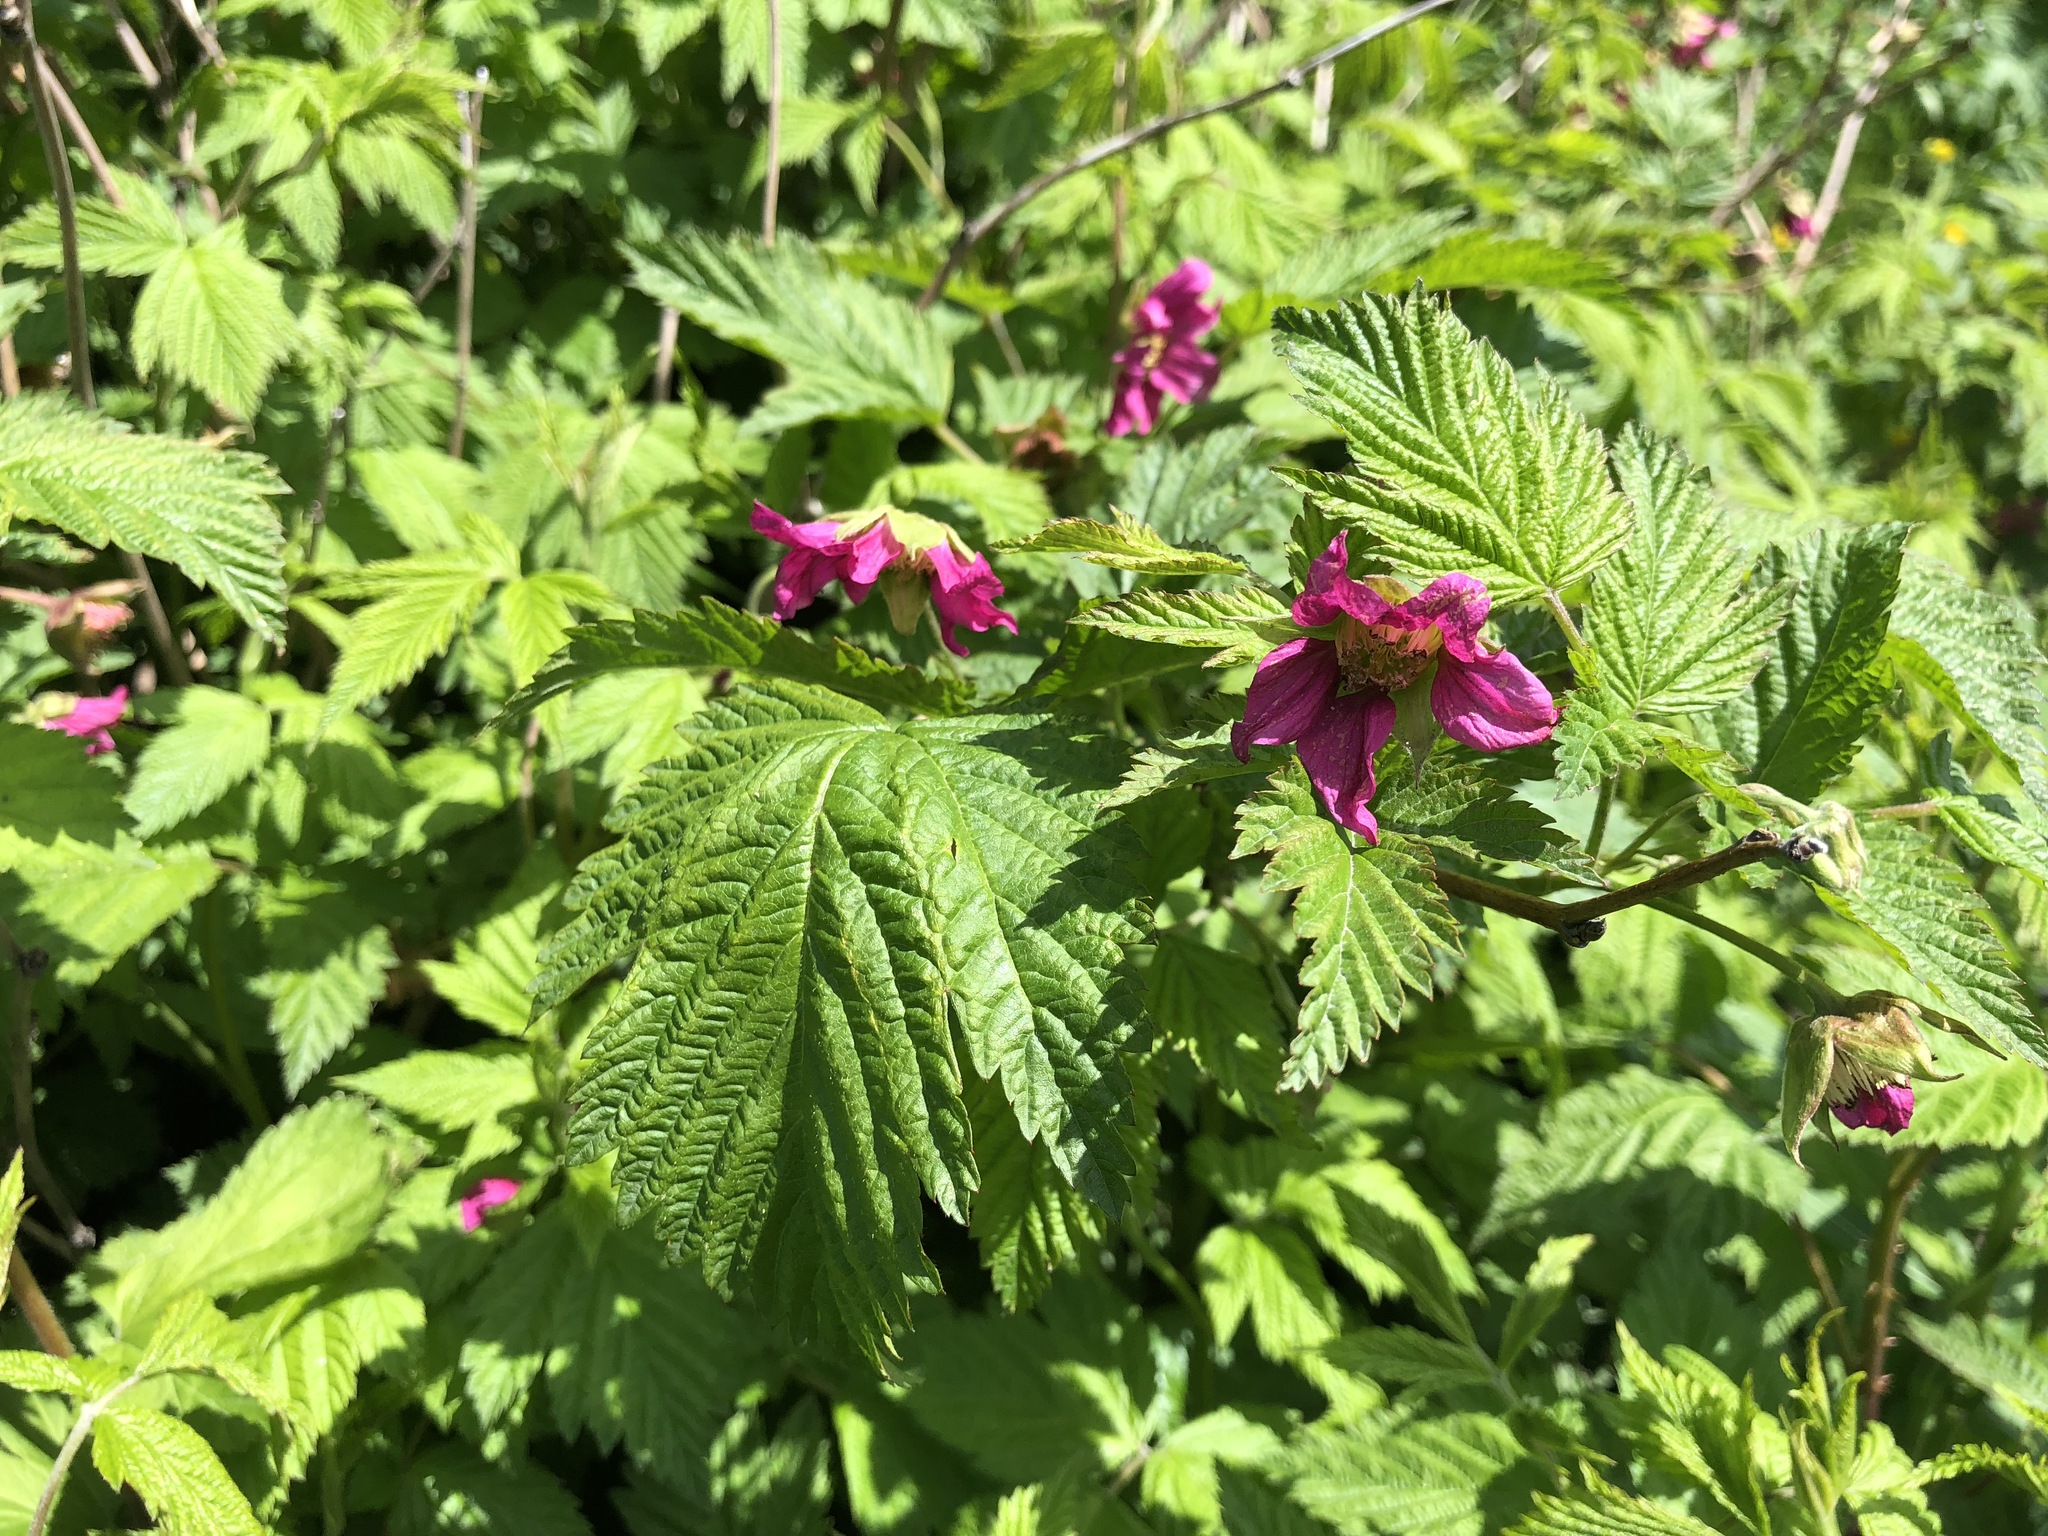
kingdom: Plantae
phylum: Tracheophyta
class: Magnoliopsida
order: Rosales
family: Rosaceae
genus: Rubus
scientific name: Rubus spectabilis
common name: Salmonberry
